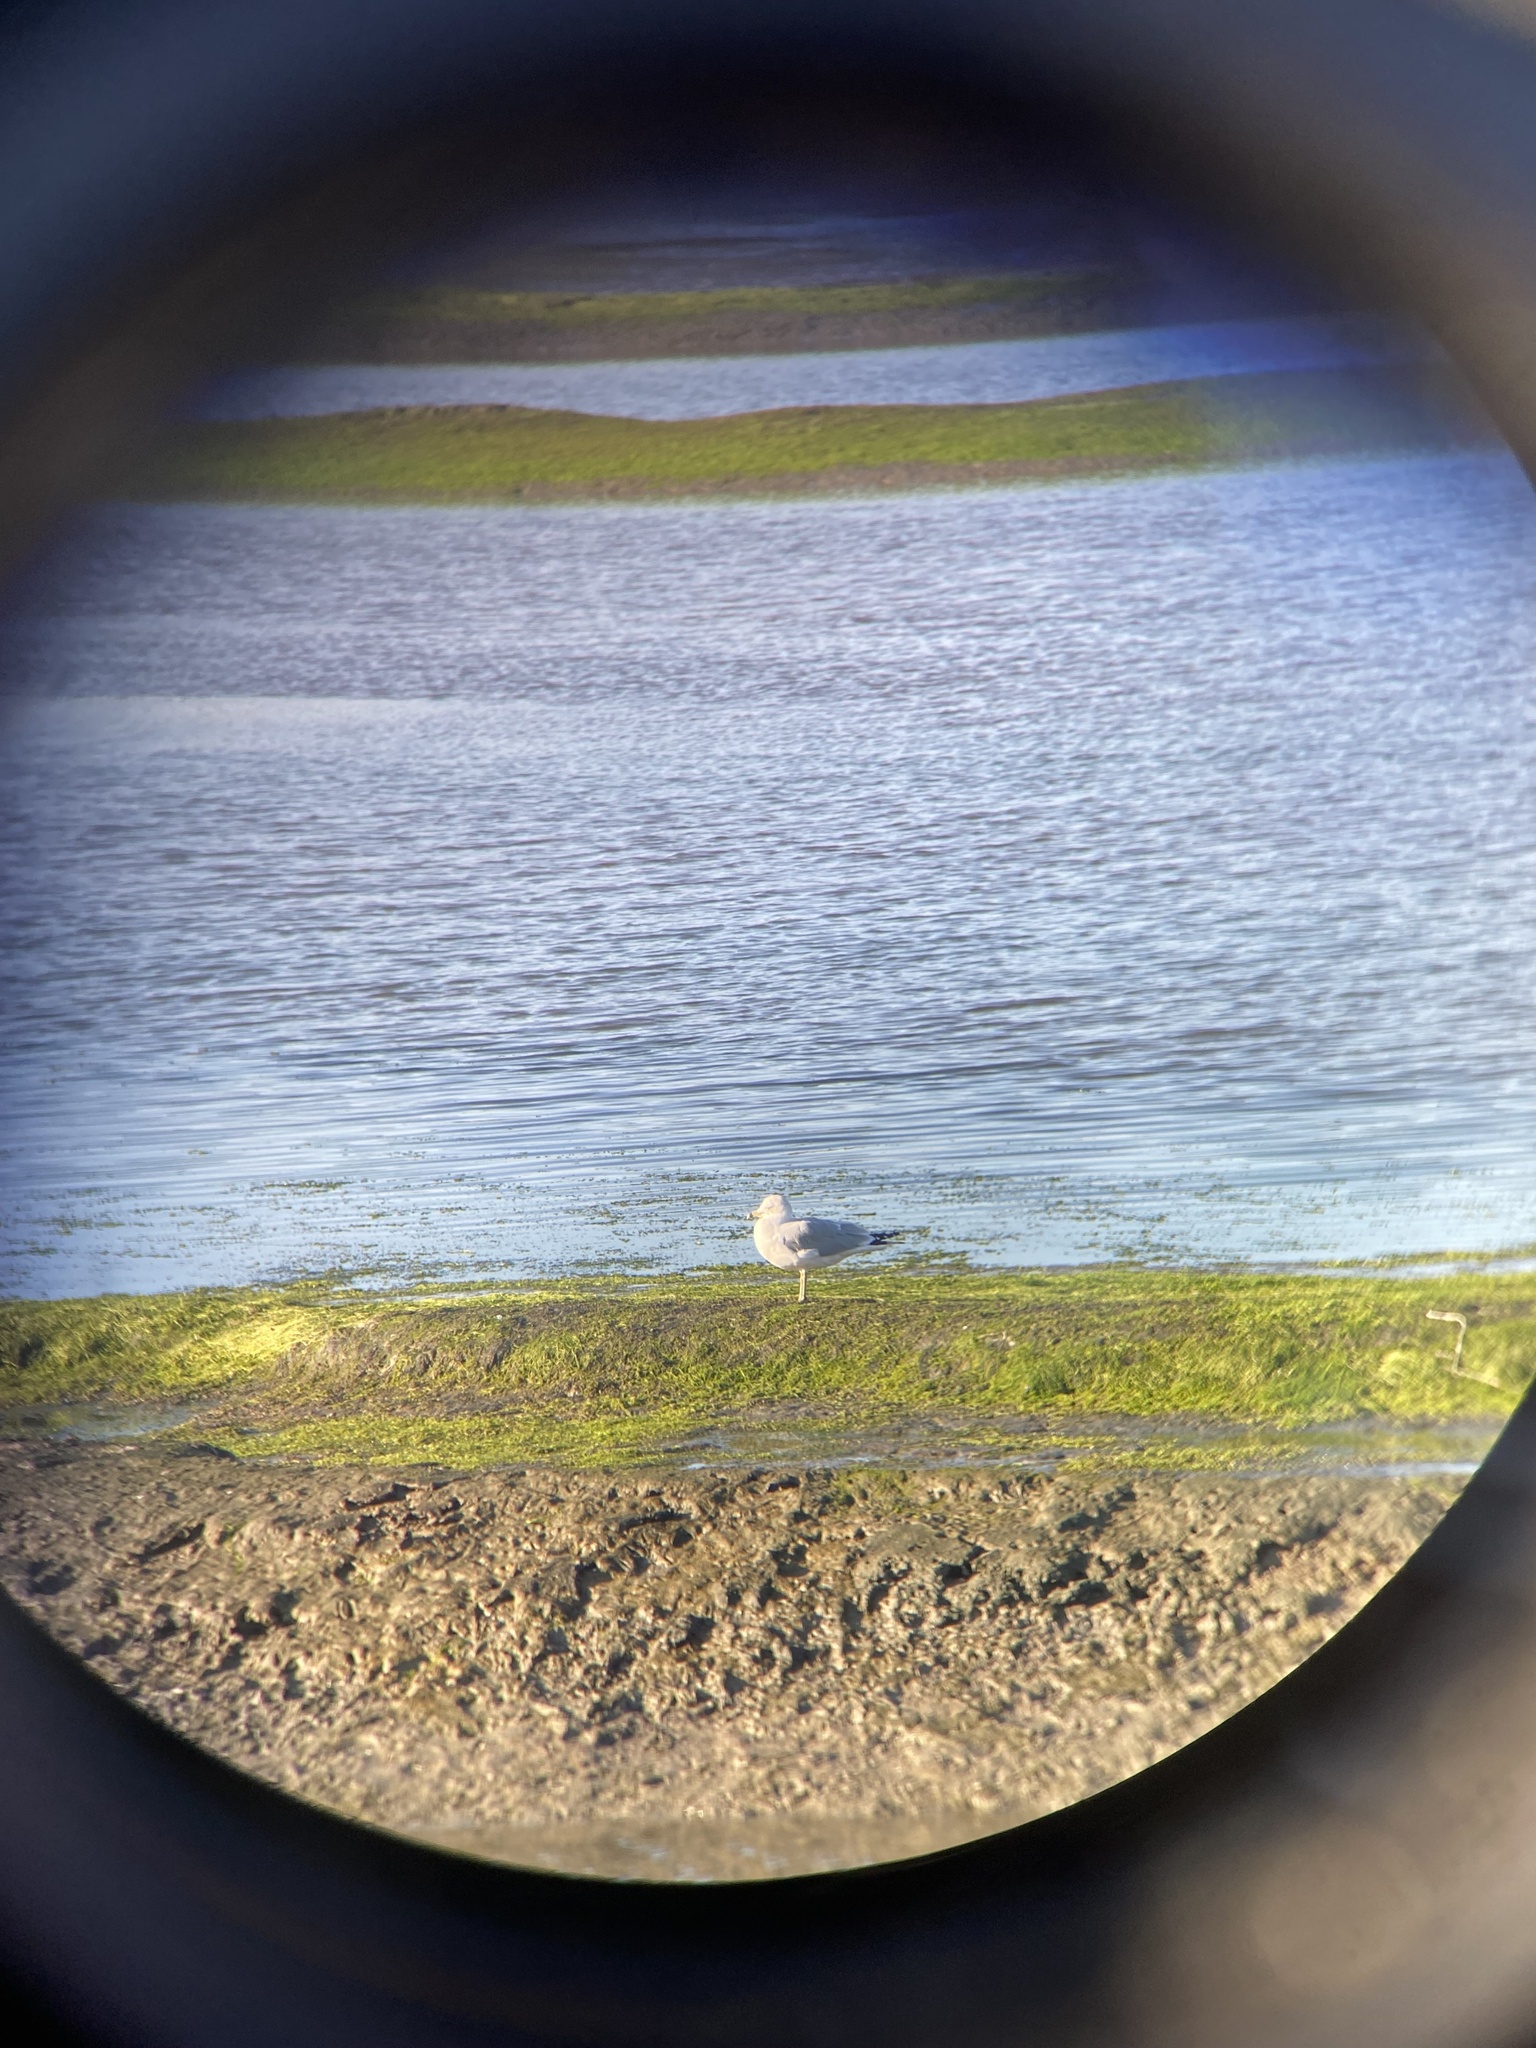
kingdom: Animalia
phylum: Chordata
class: Aves
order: Charadriiformes
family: Laridae
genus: Larus
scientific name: Larus delawarensis
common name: Ring-billed gull
